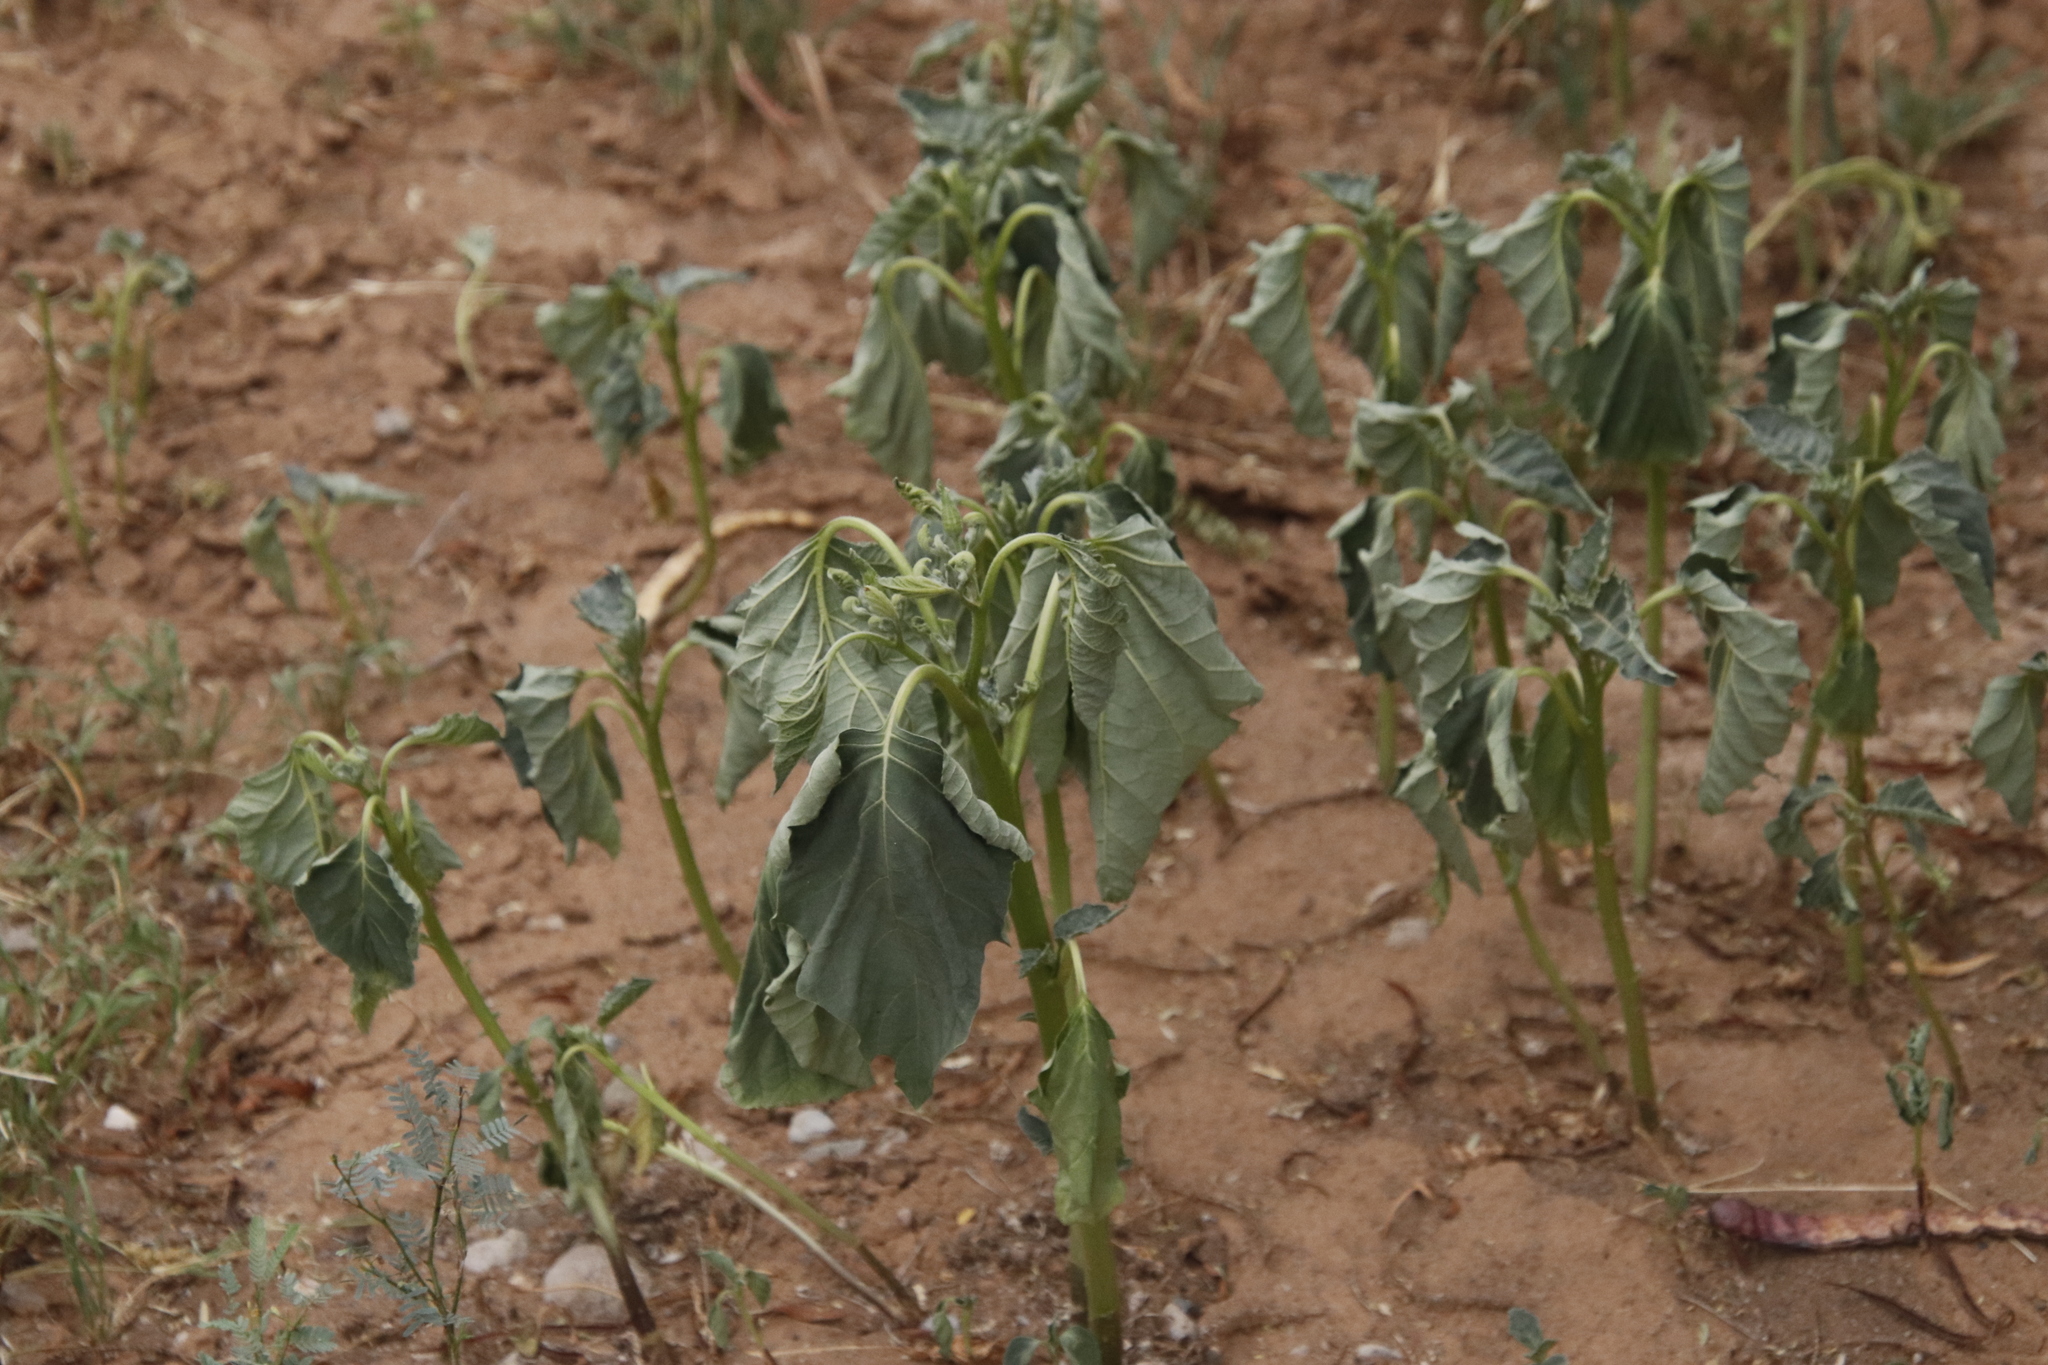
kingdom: Plantae
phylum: Tracheophyta
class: Magnoliopsida
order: Solanales
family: Solanaceae
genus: Solanum
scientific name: Solanum viarum
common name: Tropical soda apple
